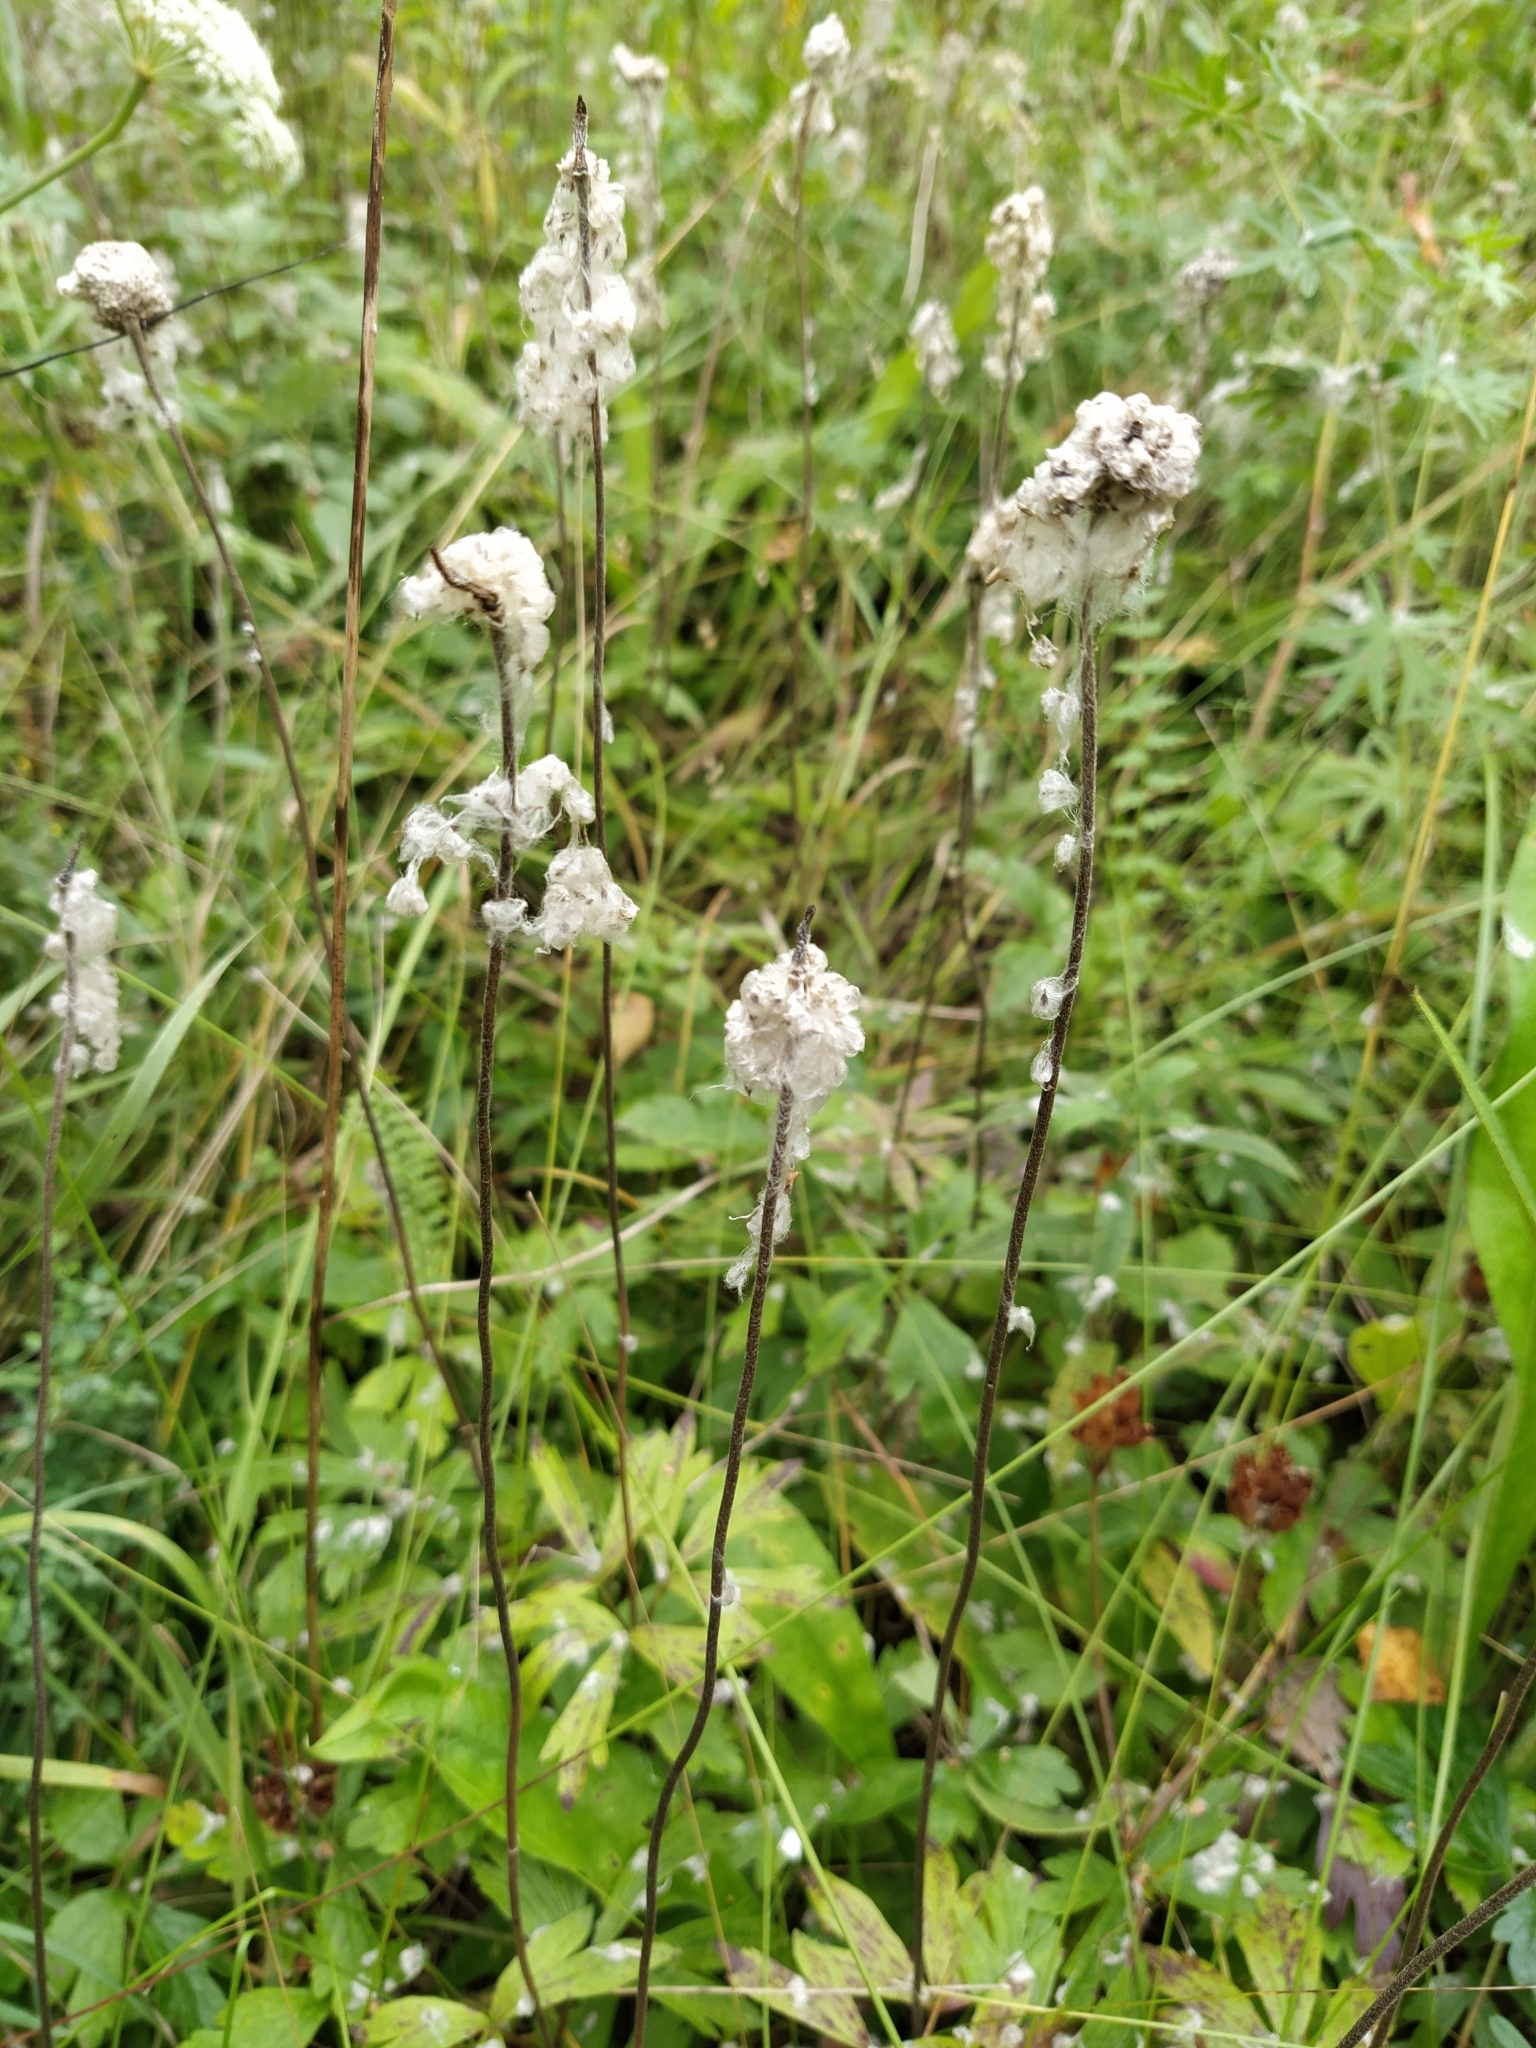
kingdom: Plantae
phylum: Tracheophyta
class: Magnoliopsida
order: Ranunculales
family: Ranunculaceae
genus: Anemone
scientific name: Anemone sylvestris
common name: Snowdrop anemone
